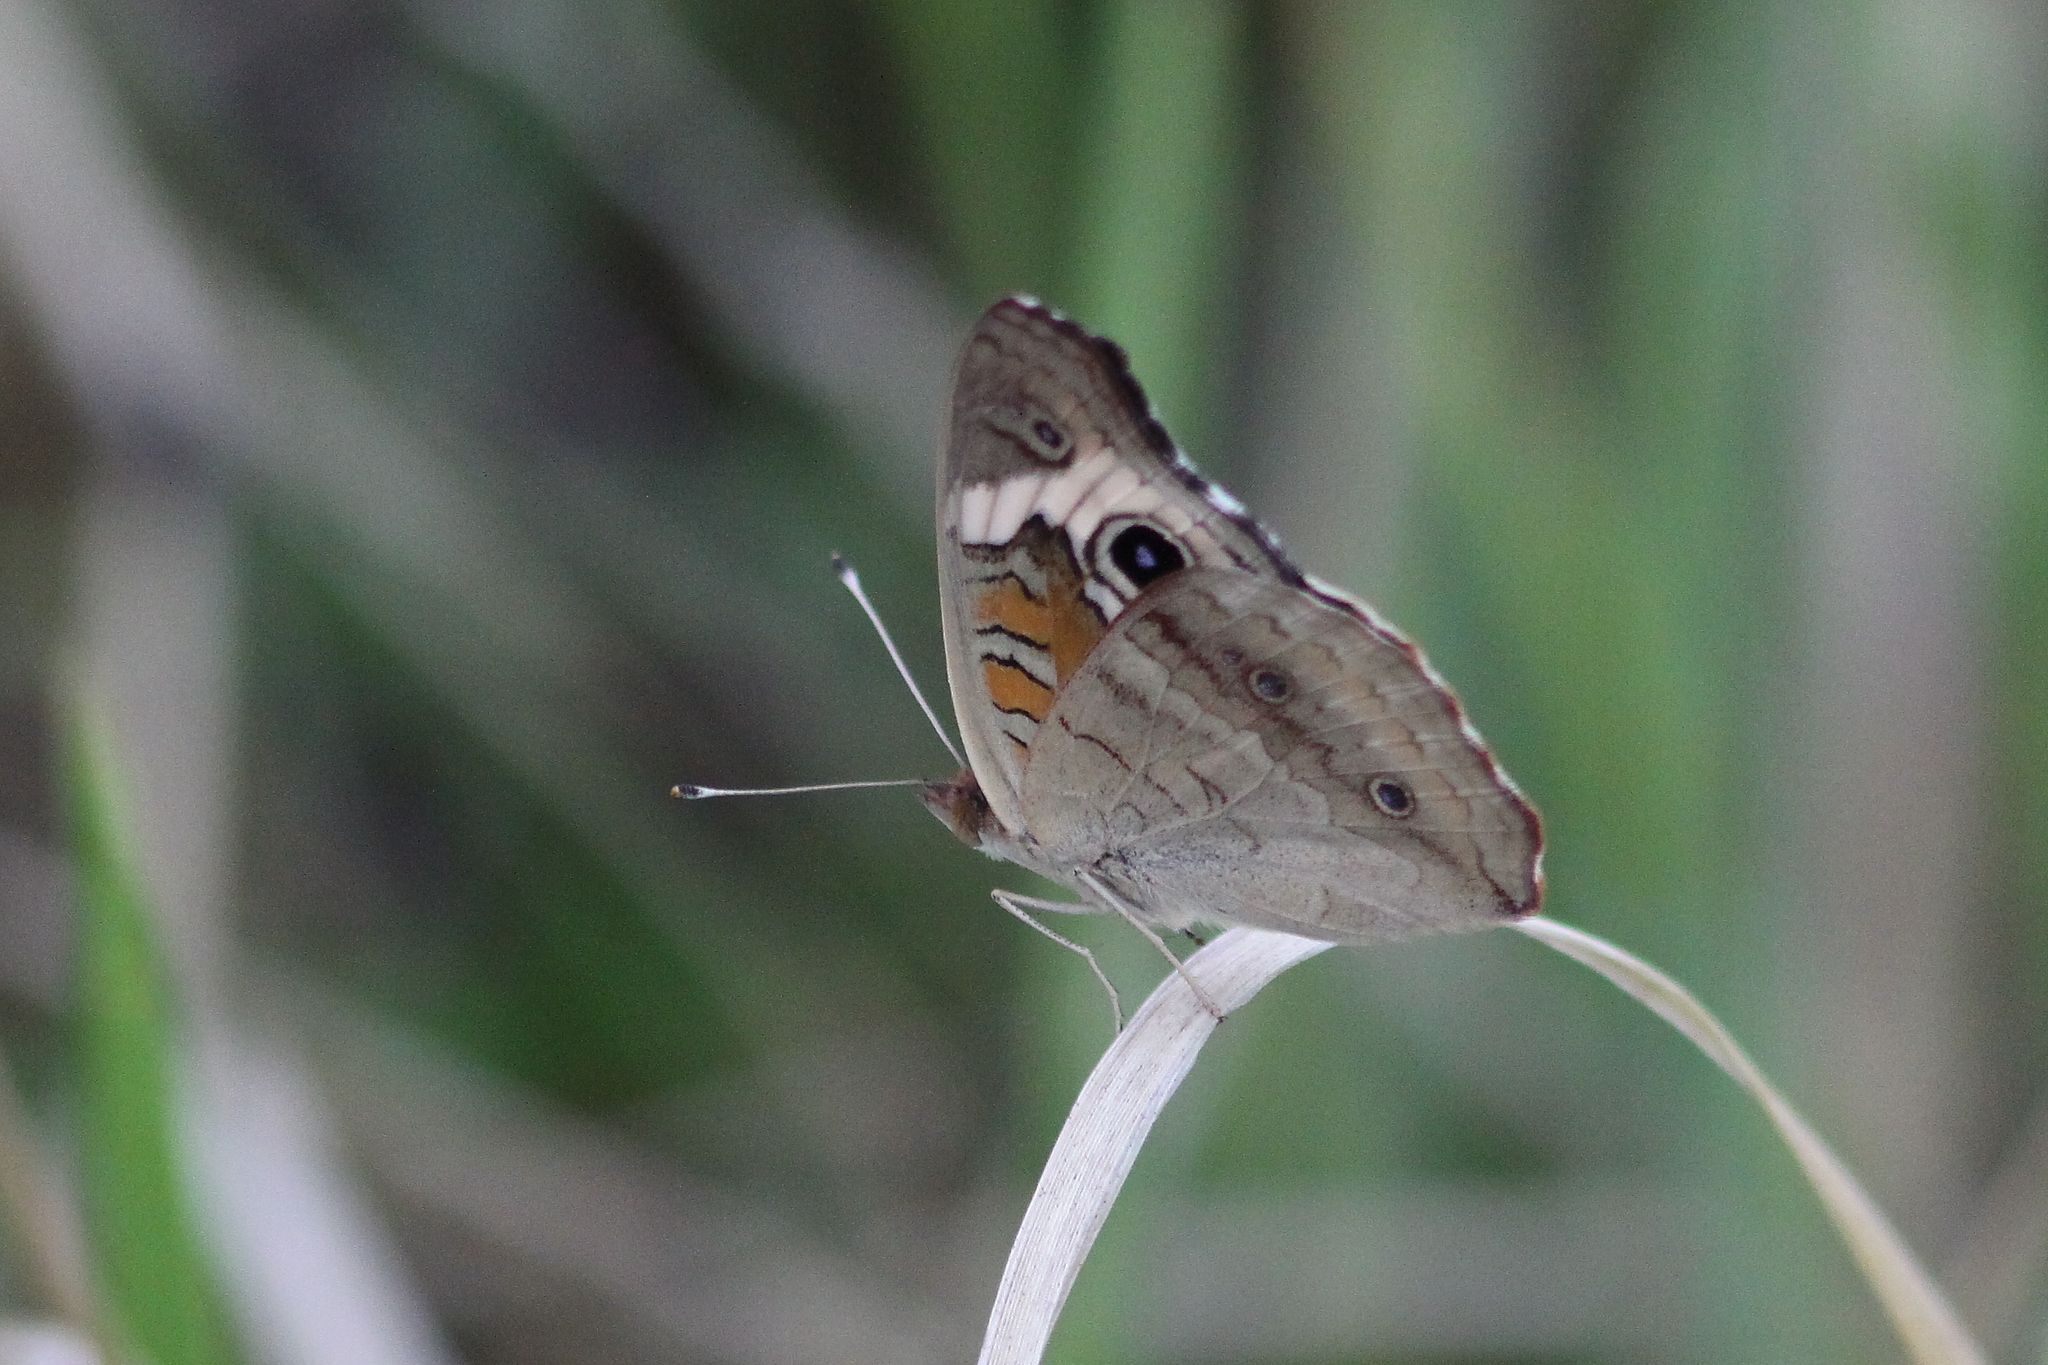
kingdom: Animalia
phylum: Arthropoda
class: Insecta
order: Lepidoptera
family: Nymphalidae
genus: Junonia
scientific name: Junonia coenia
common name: Common buckeye
